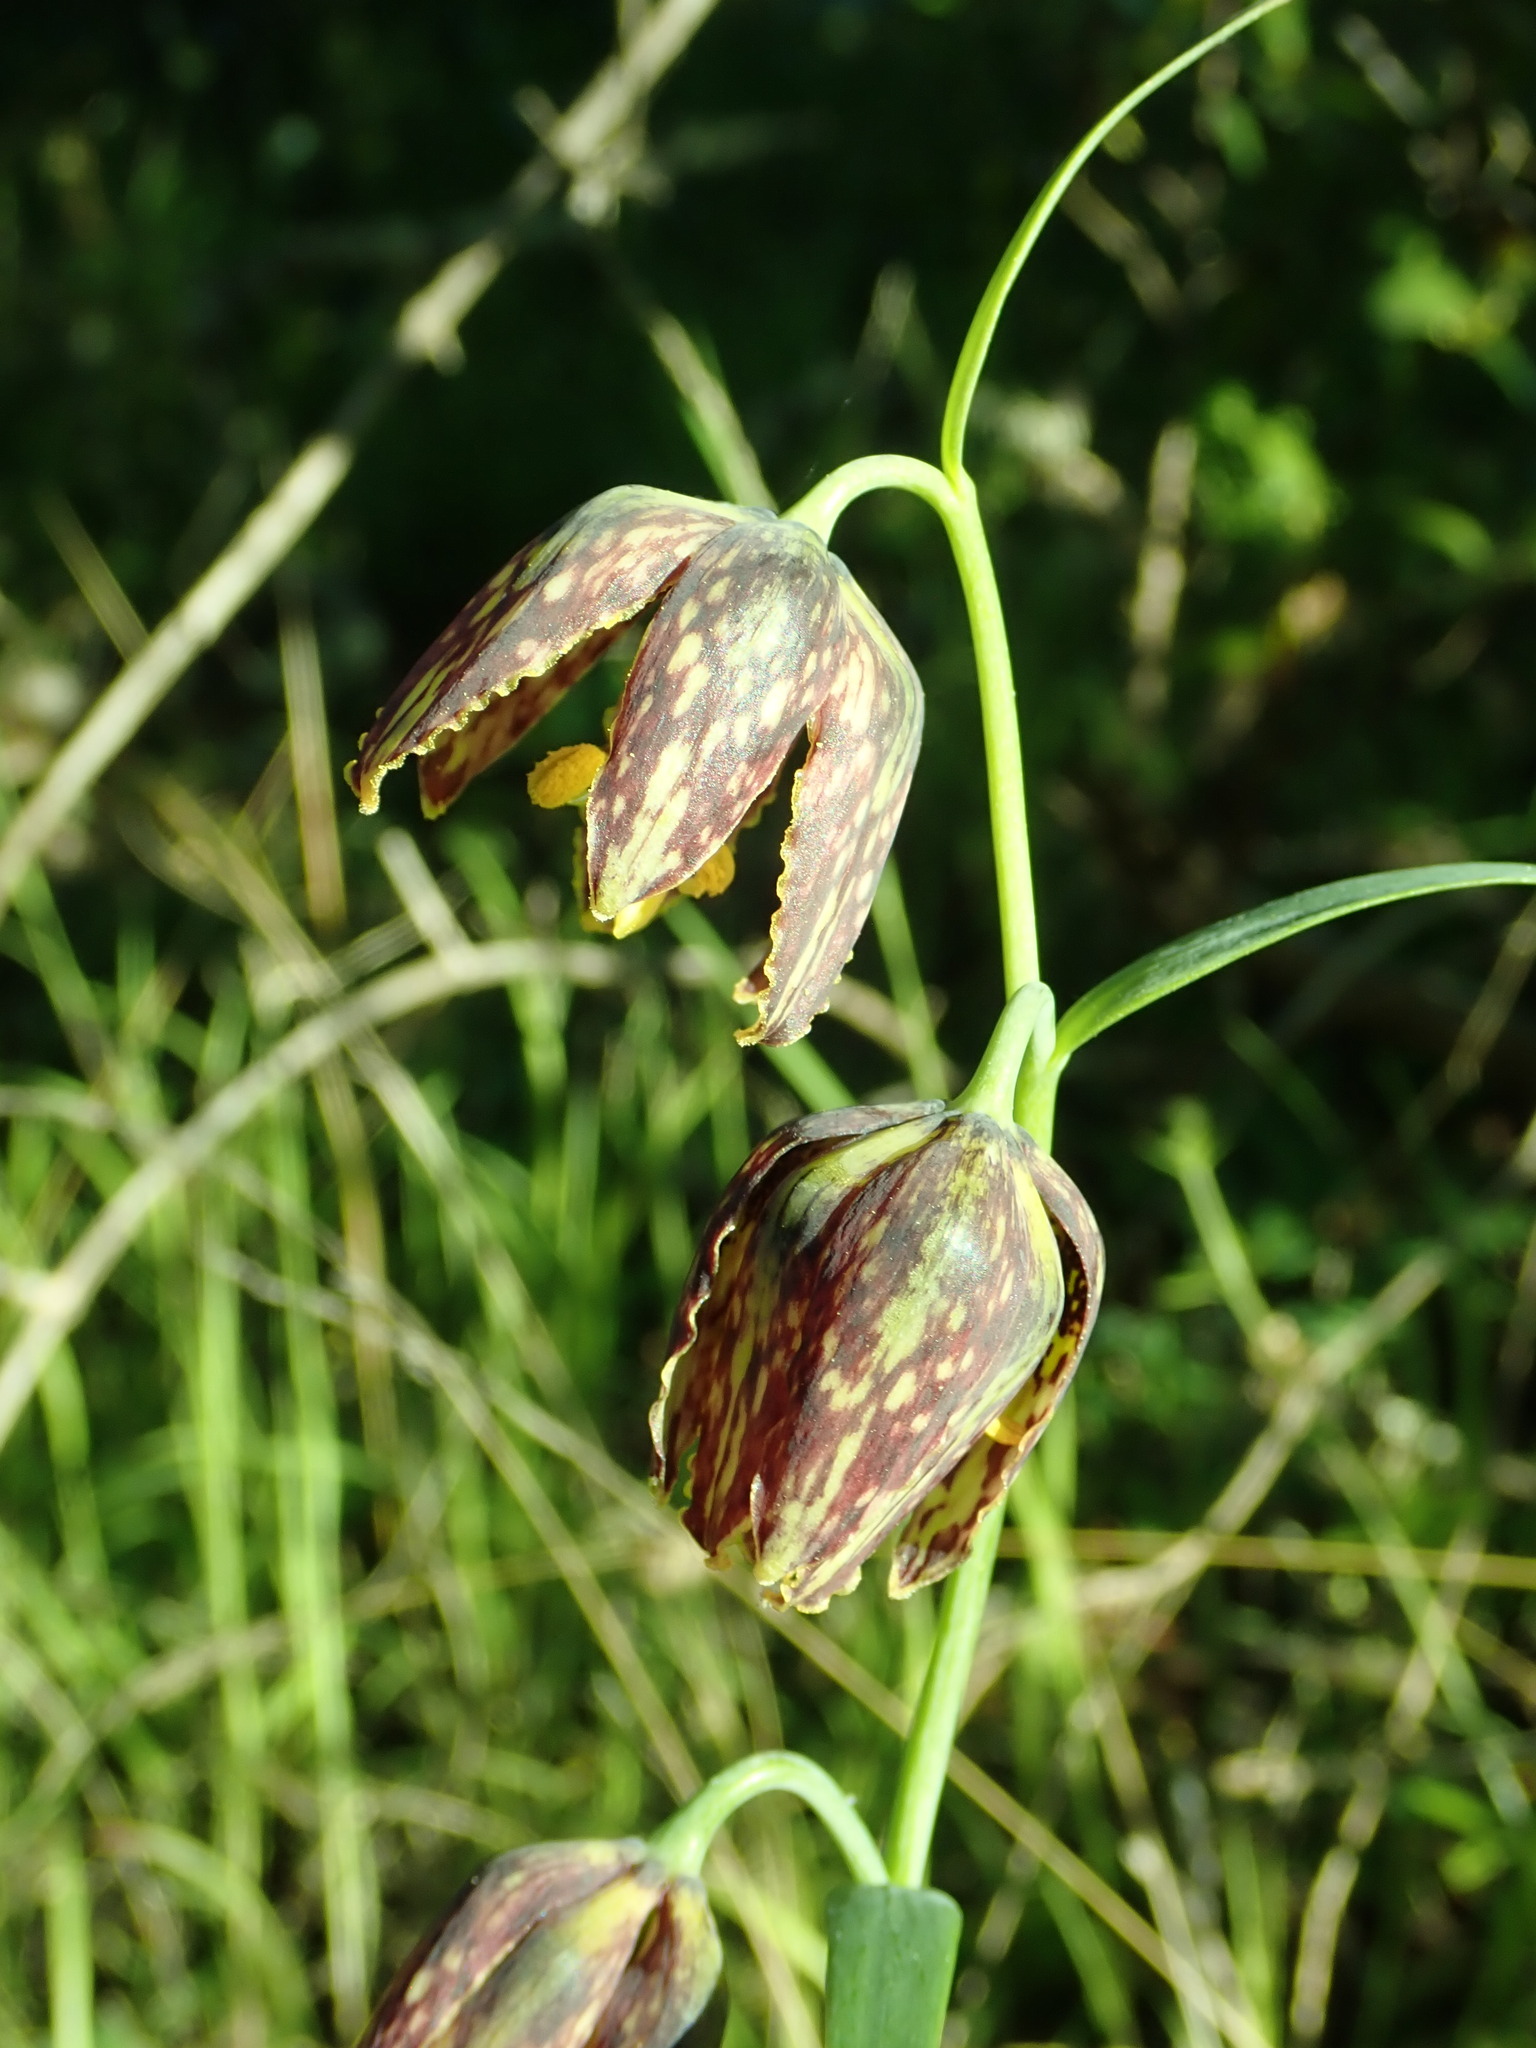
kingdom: Plantae
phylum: Tracheophyta
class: Liliopsida
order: Liliales
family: Liliaceae
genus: Fritillaria
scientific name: Fritillaria affinis
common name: Ojai fritillary
